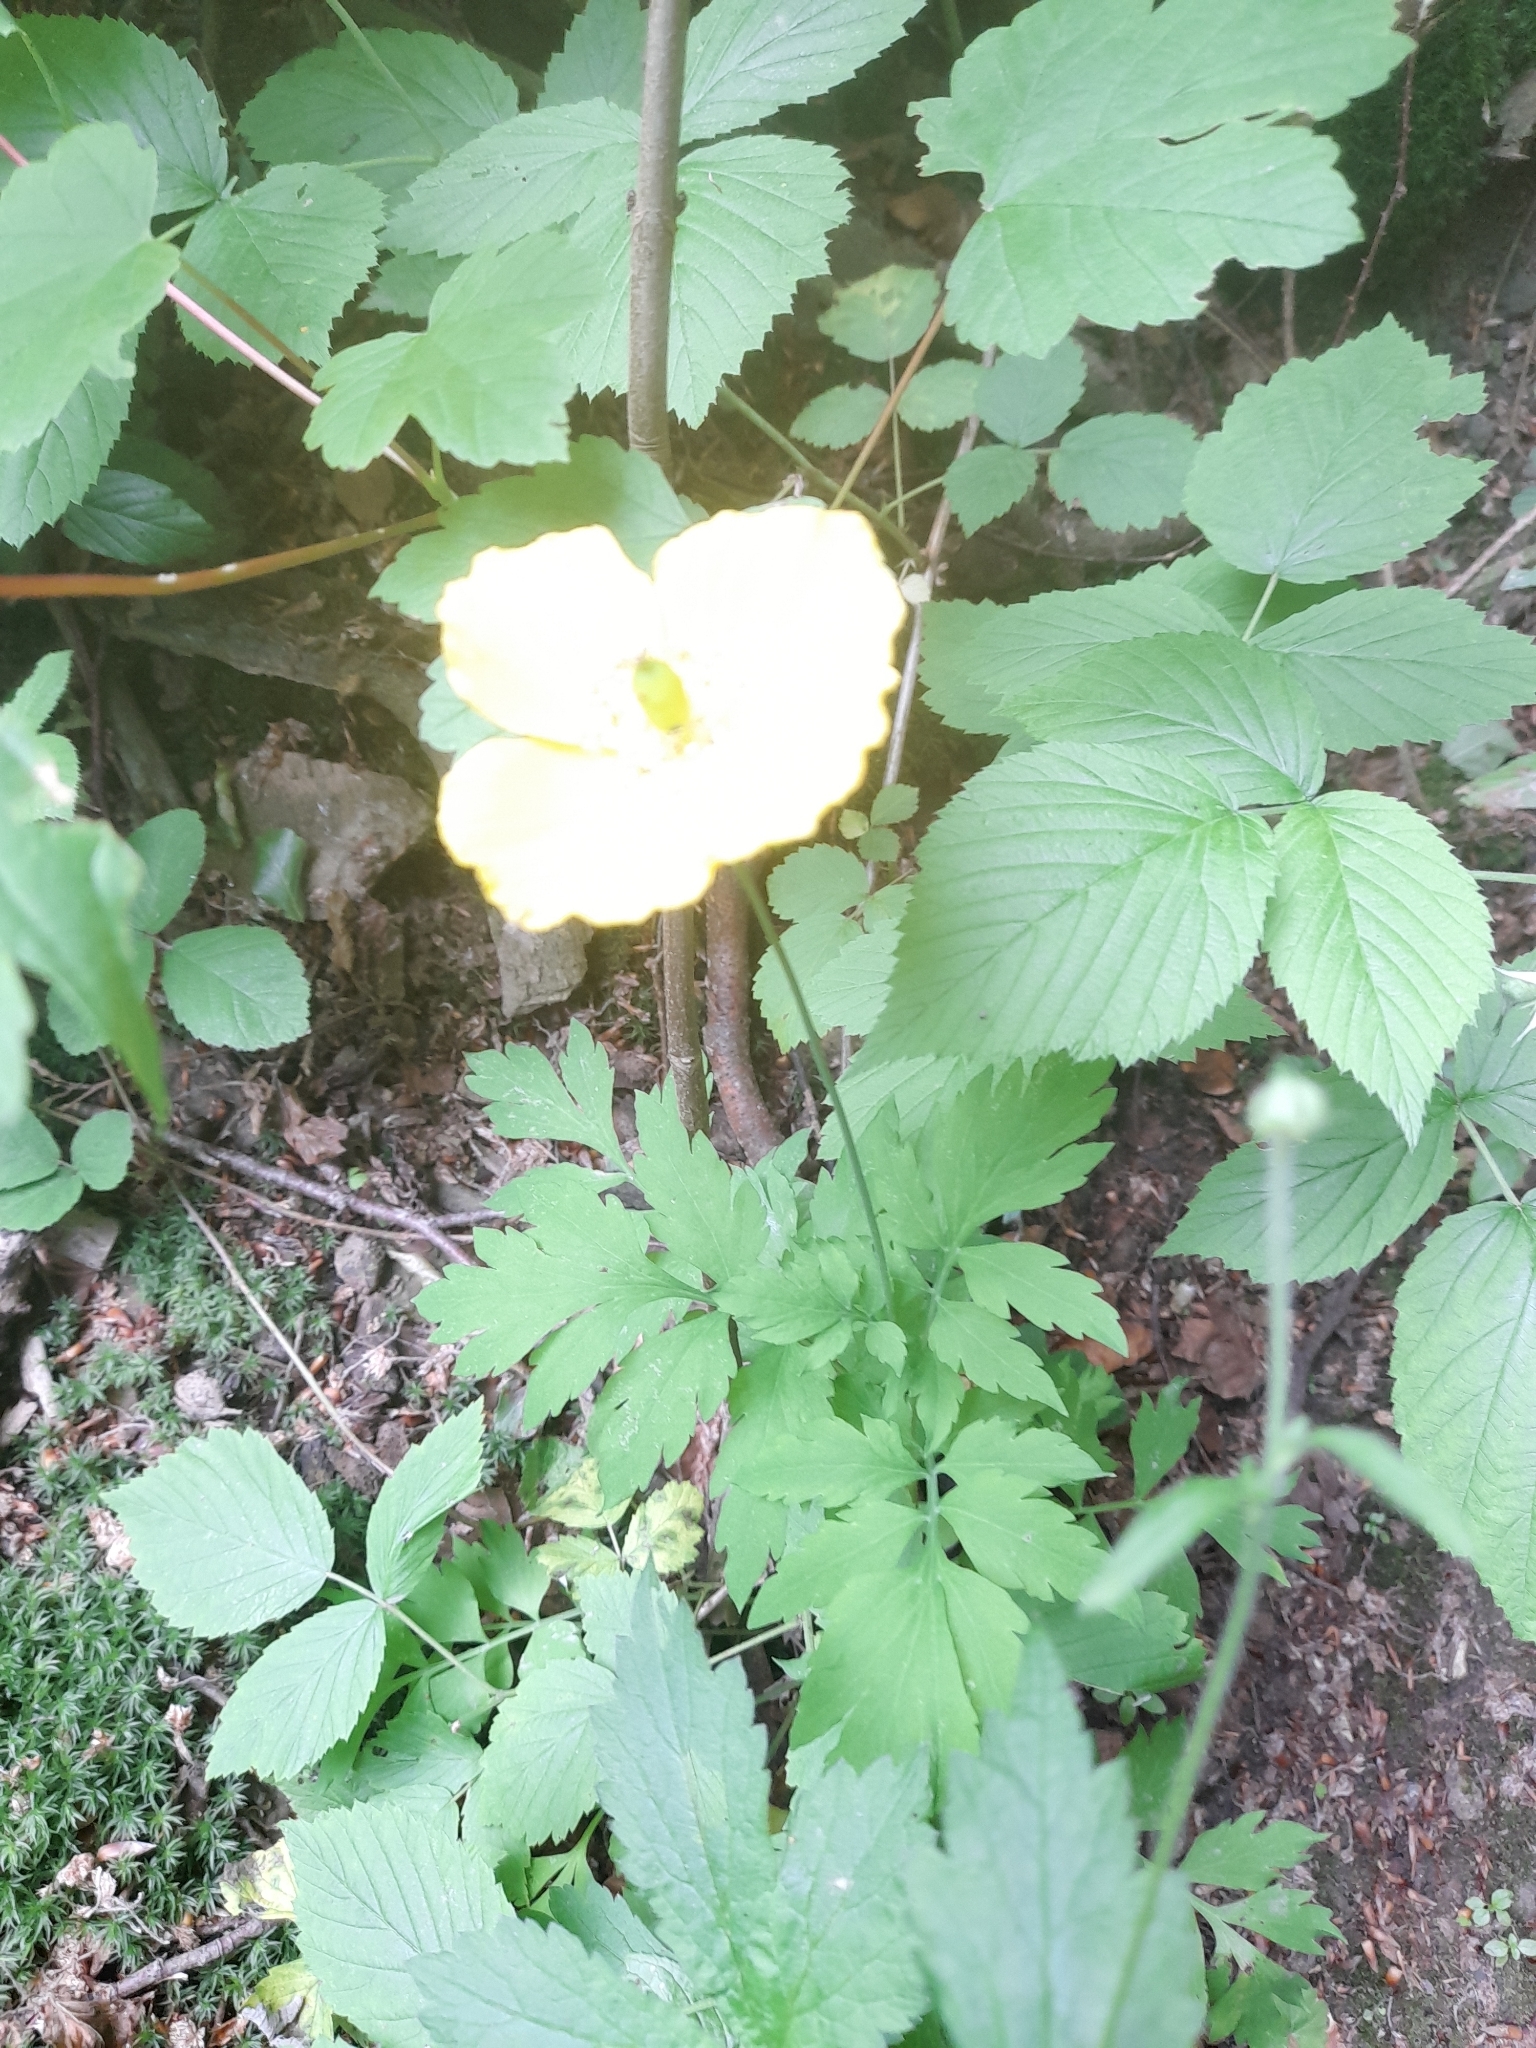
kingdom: Plantae
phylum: Tracheophyta
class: Magnoliopsida
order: Ranunculales
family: Papaveraceae
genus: Papaver
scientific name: Papaver cambricum
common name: Poppy
